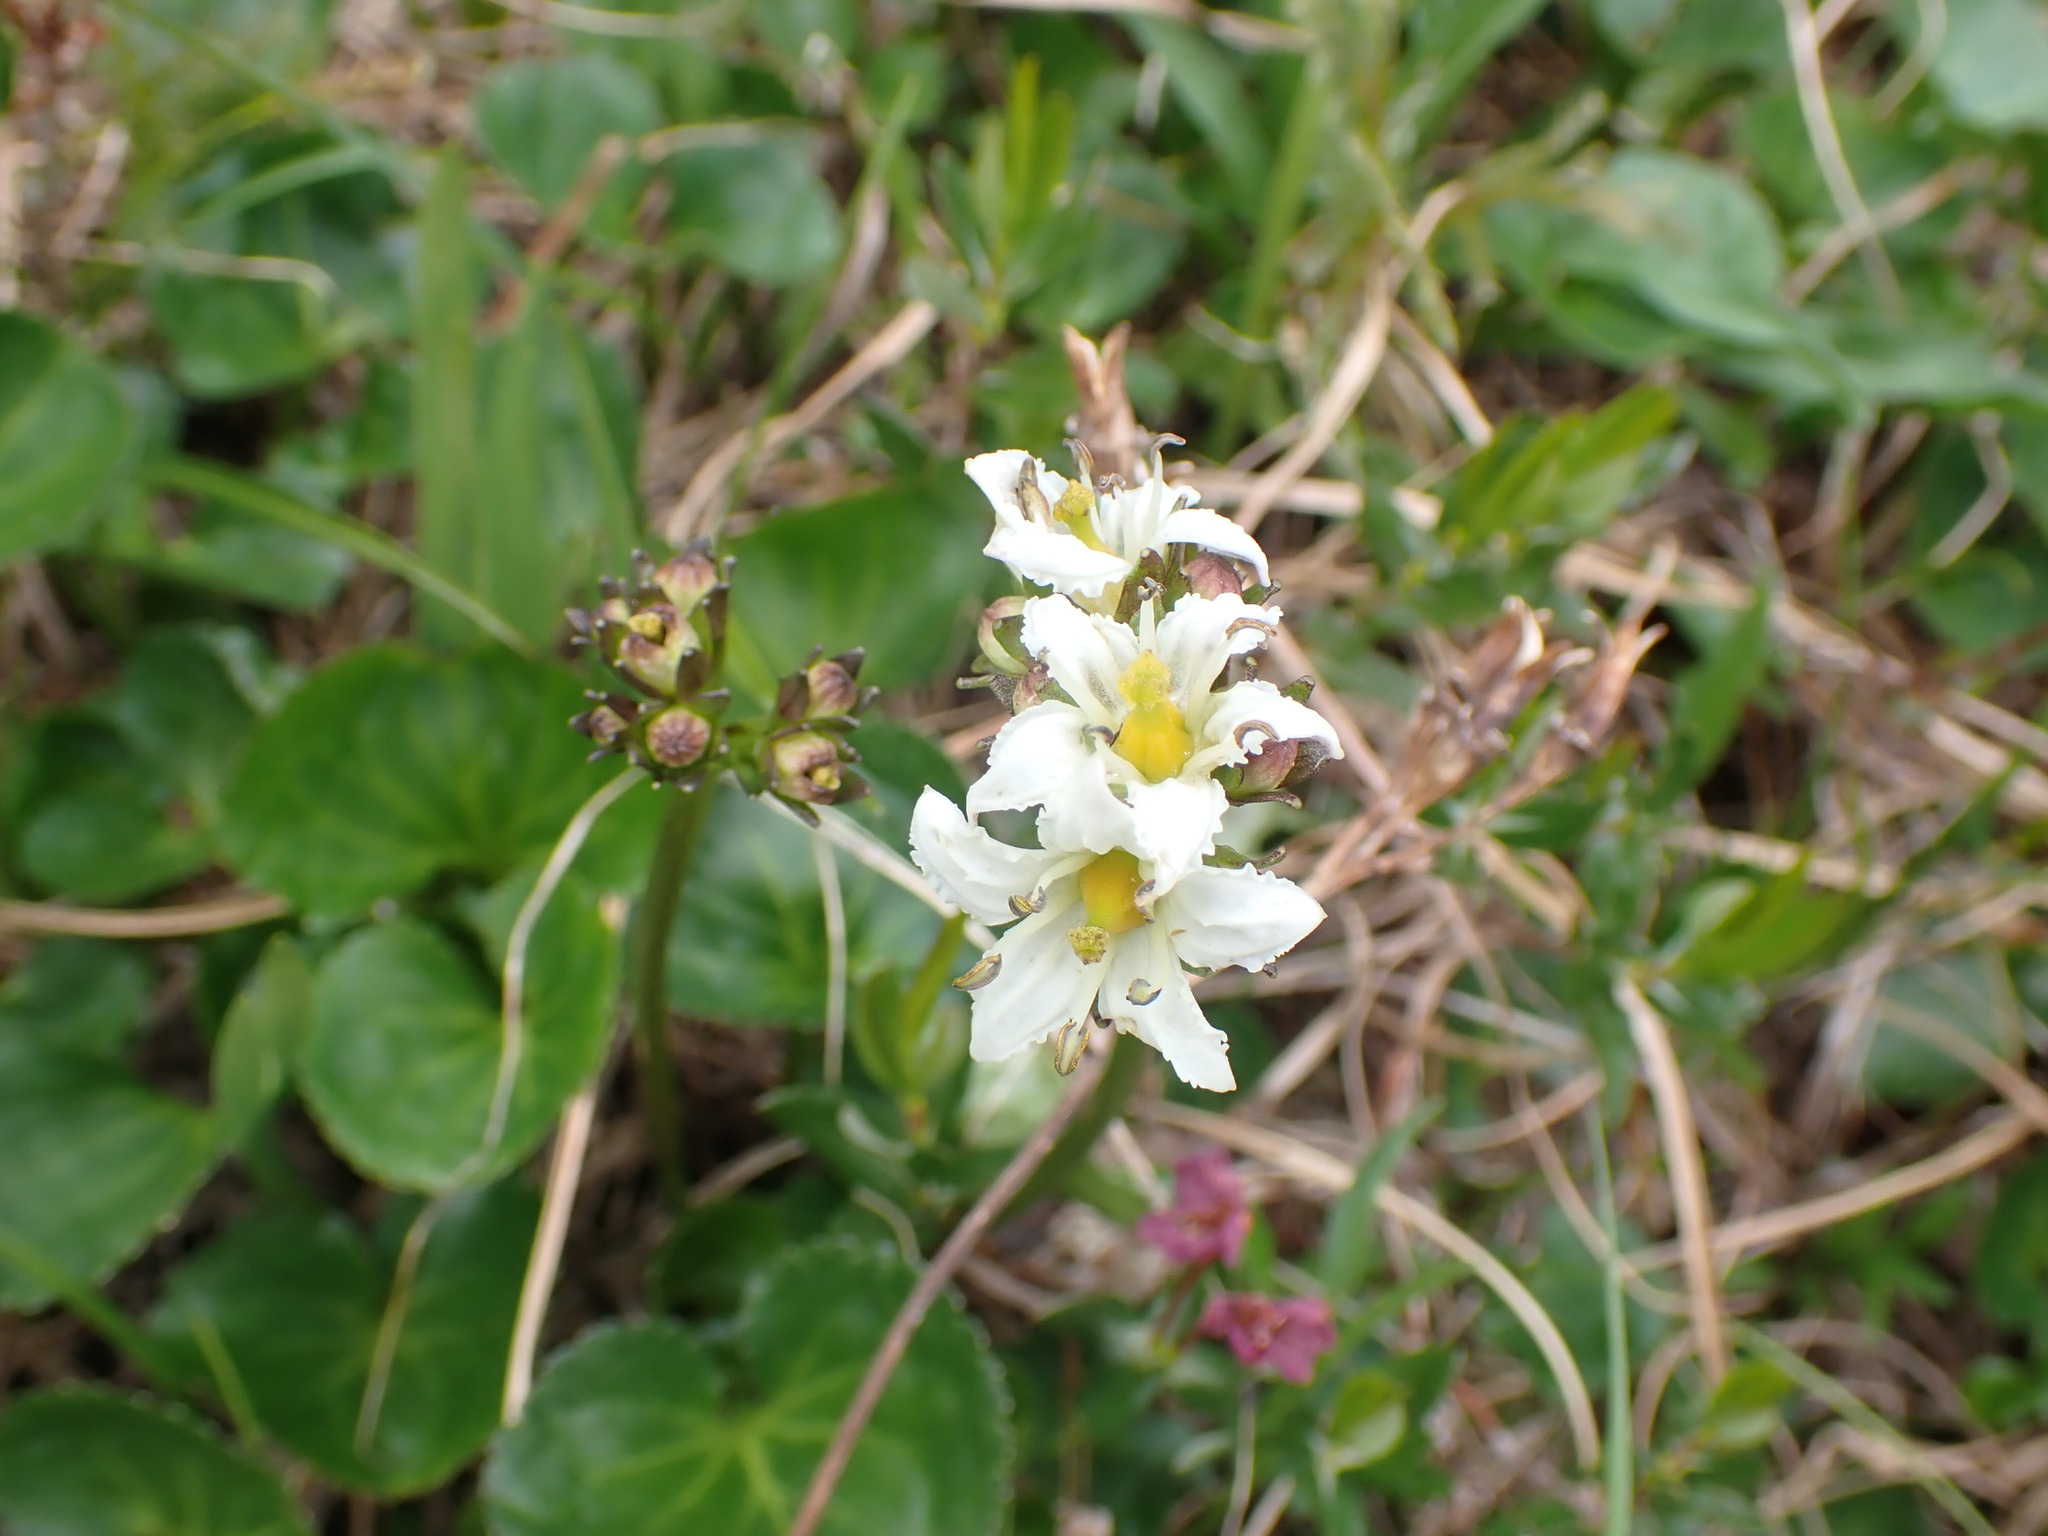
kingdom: Plantae
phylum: Tracheophyta
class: Magnoliopsida
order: Asterales
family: Menyanthaceae
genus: Nephrophyllidium
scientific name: Nephrophyllidium crista-galli
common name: Deer-cabbage
